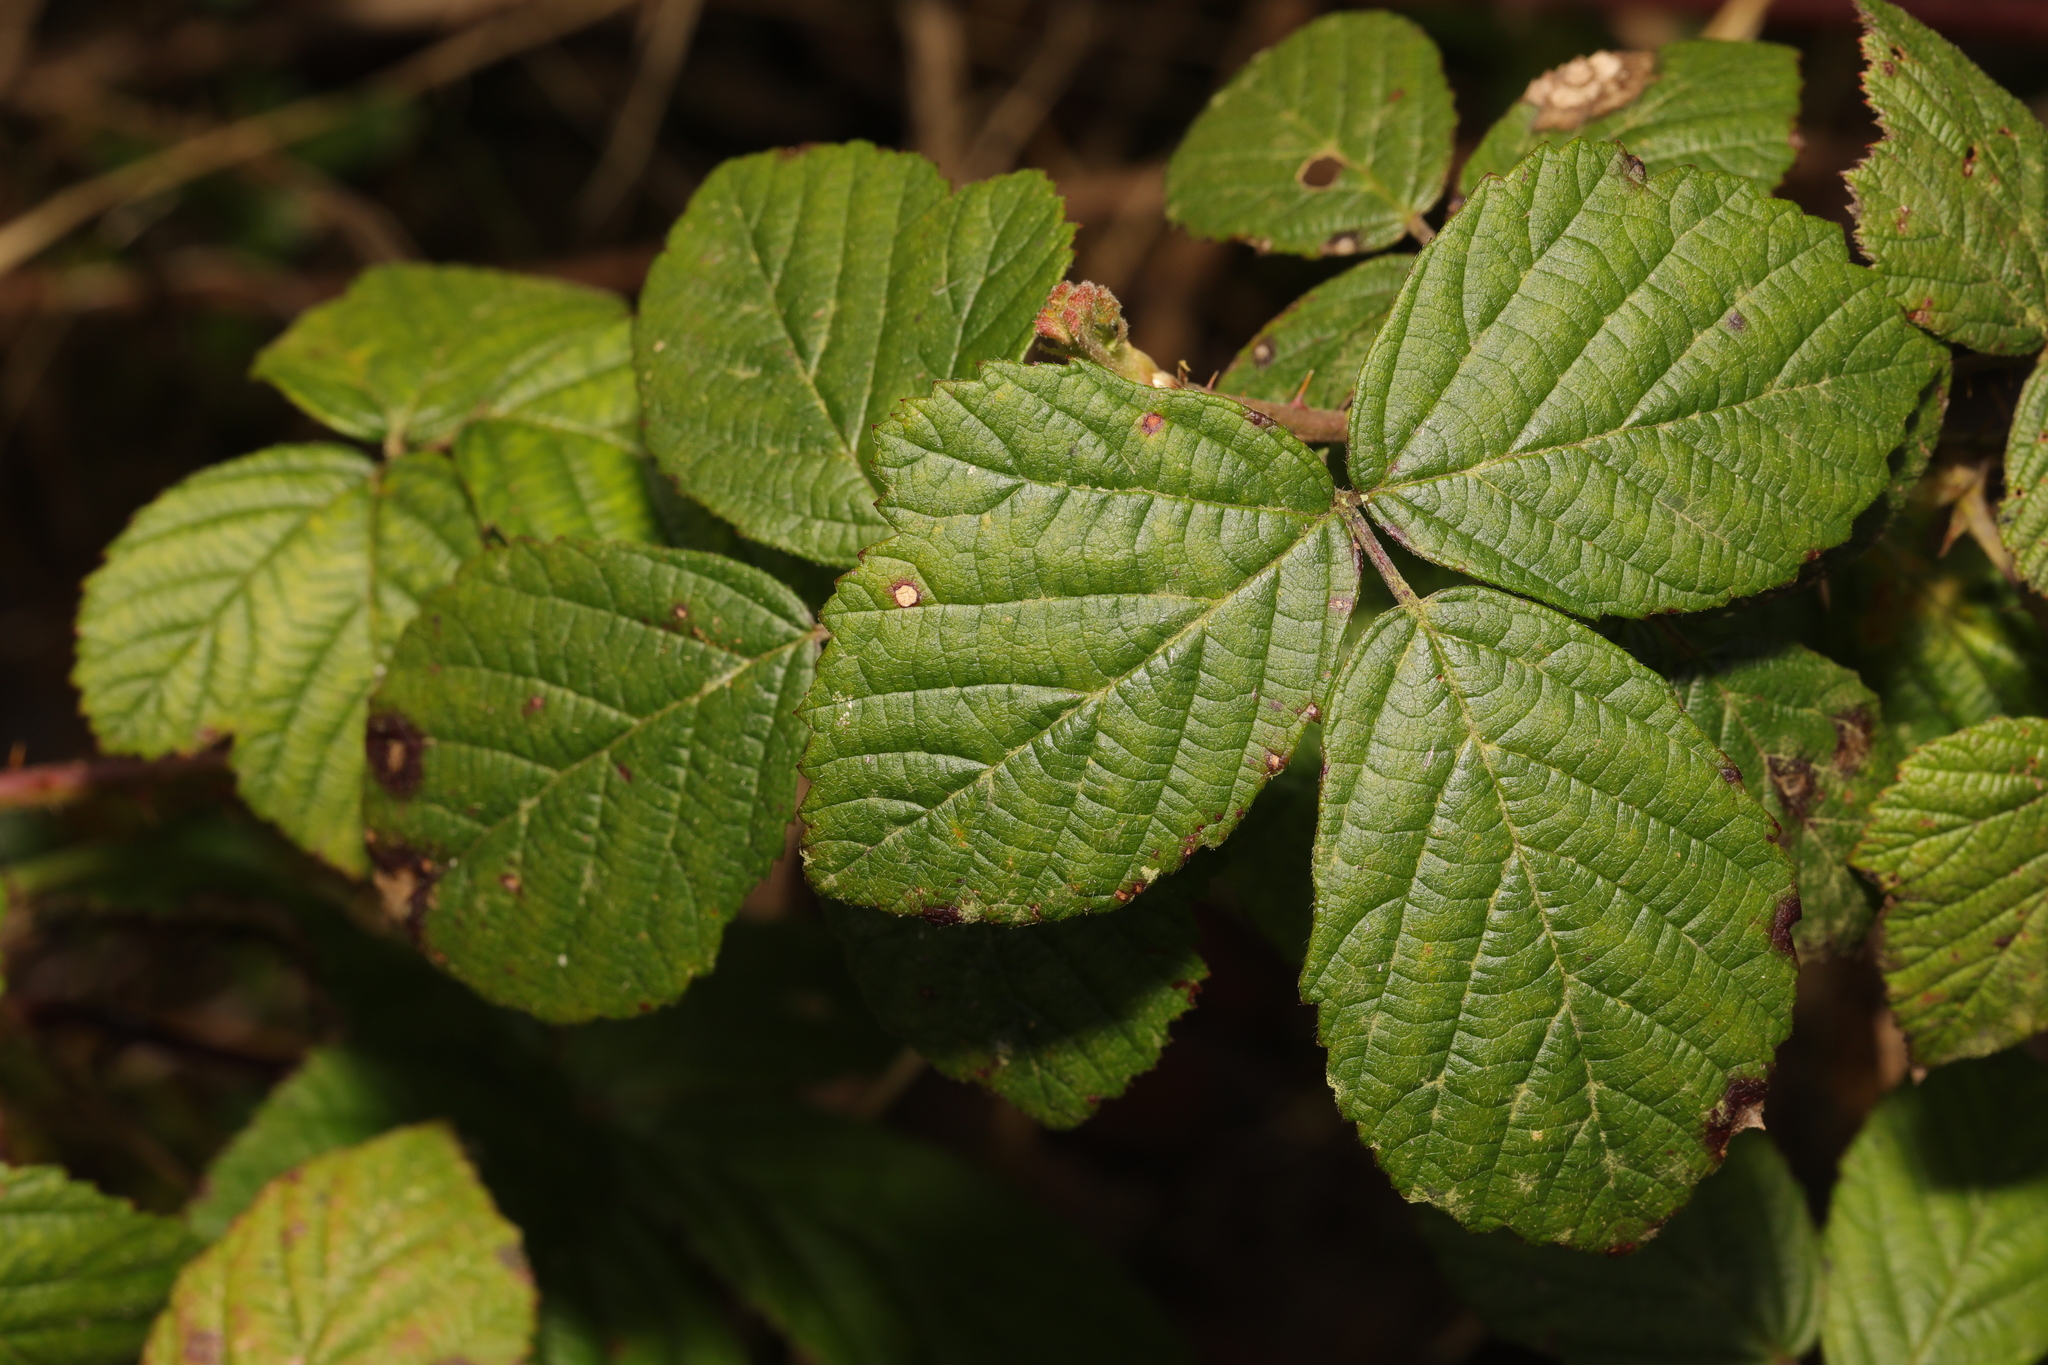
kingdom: Plantae
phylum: Tracheophyta
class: Magnoliopsida
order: Rosales
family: Rosaceae
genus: Rubus
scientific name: Rubus horrefactus
